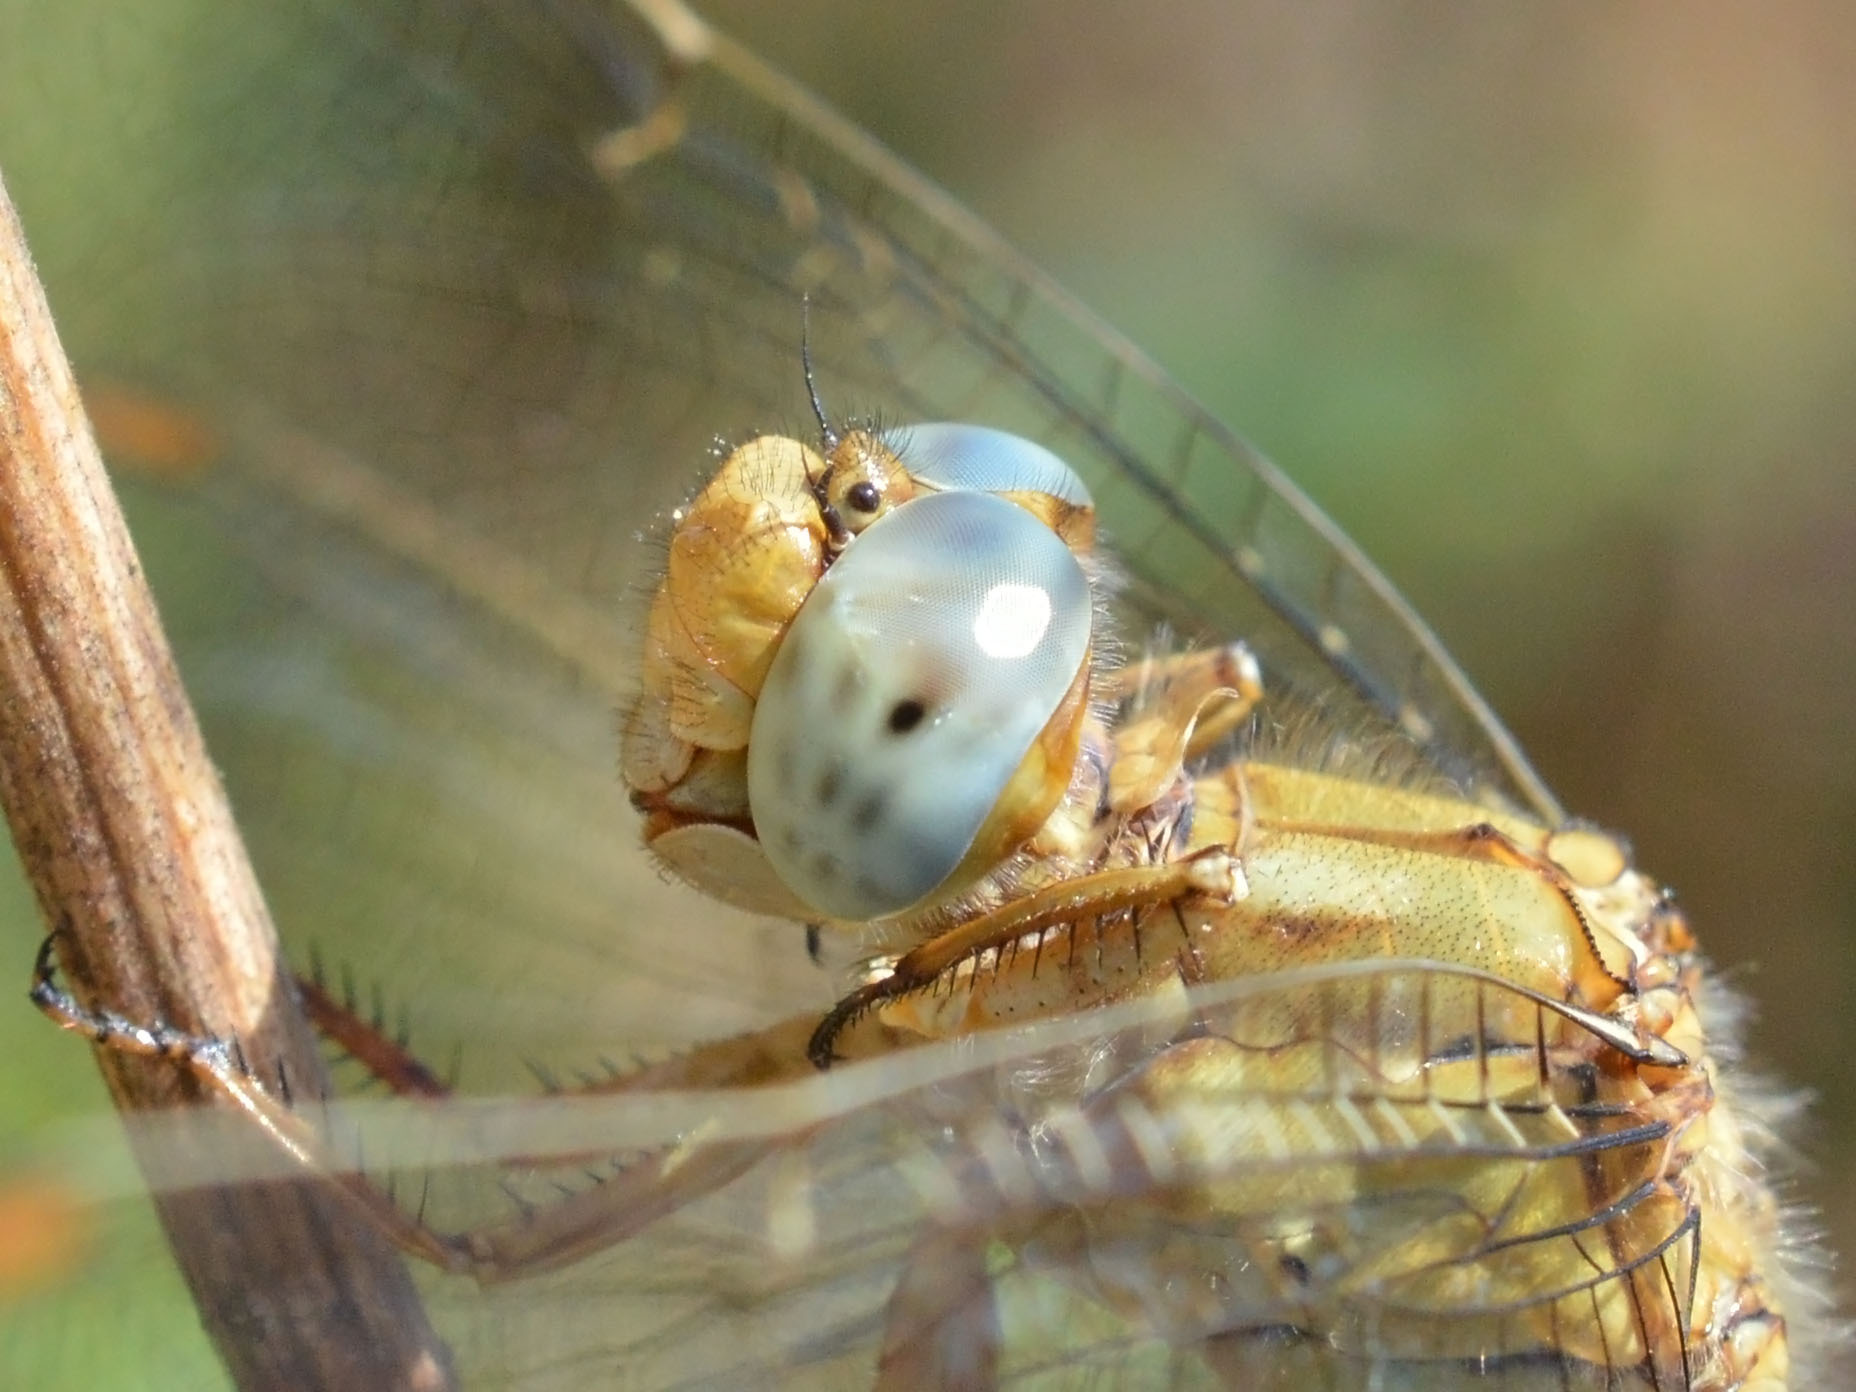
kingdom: Animalia
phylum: Arthropoda
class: Insecta
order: Odonata
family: Libellulidae
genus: Orthetrum
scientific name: Orthetrum coerulescens
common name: Keeled skimmer
